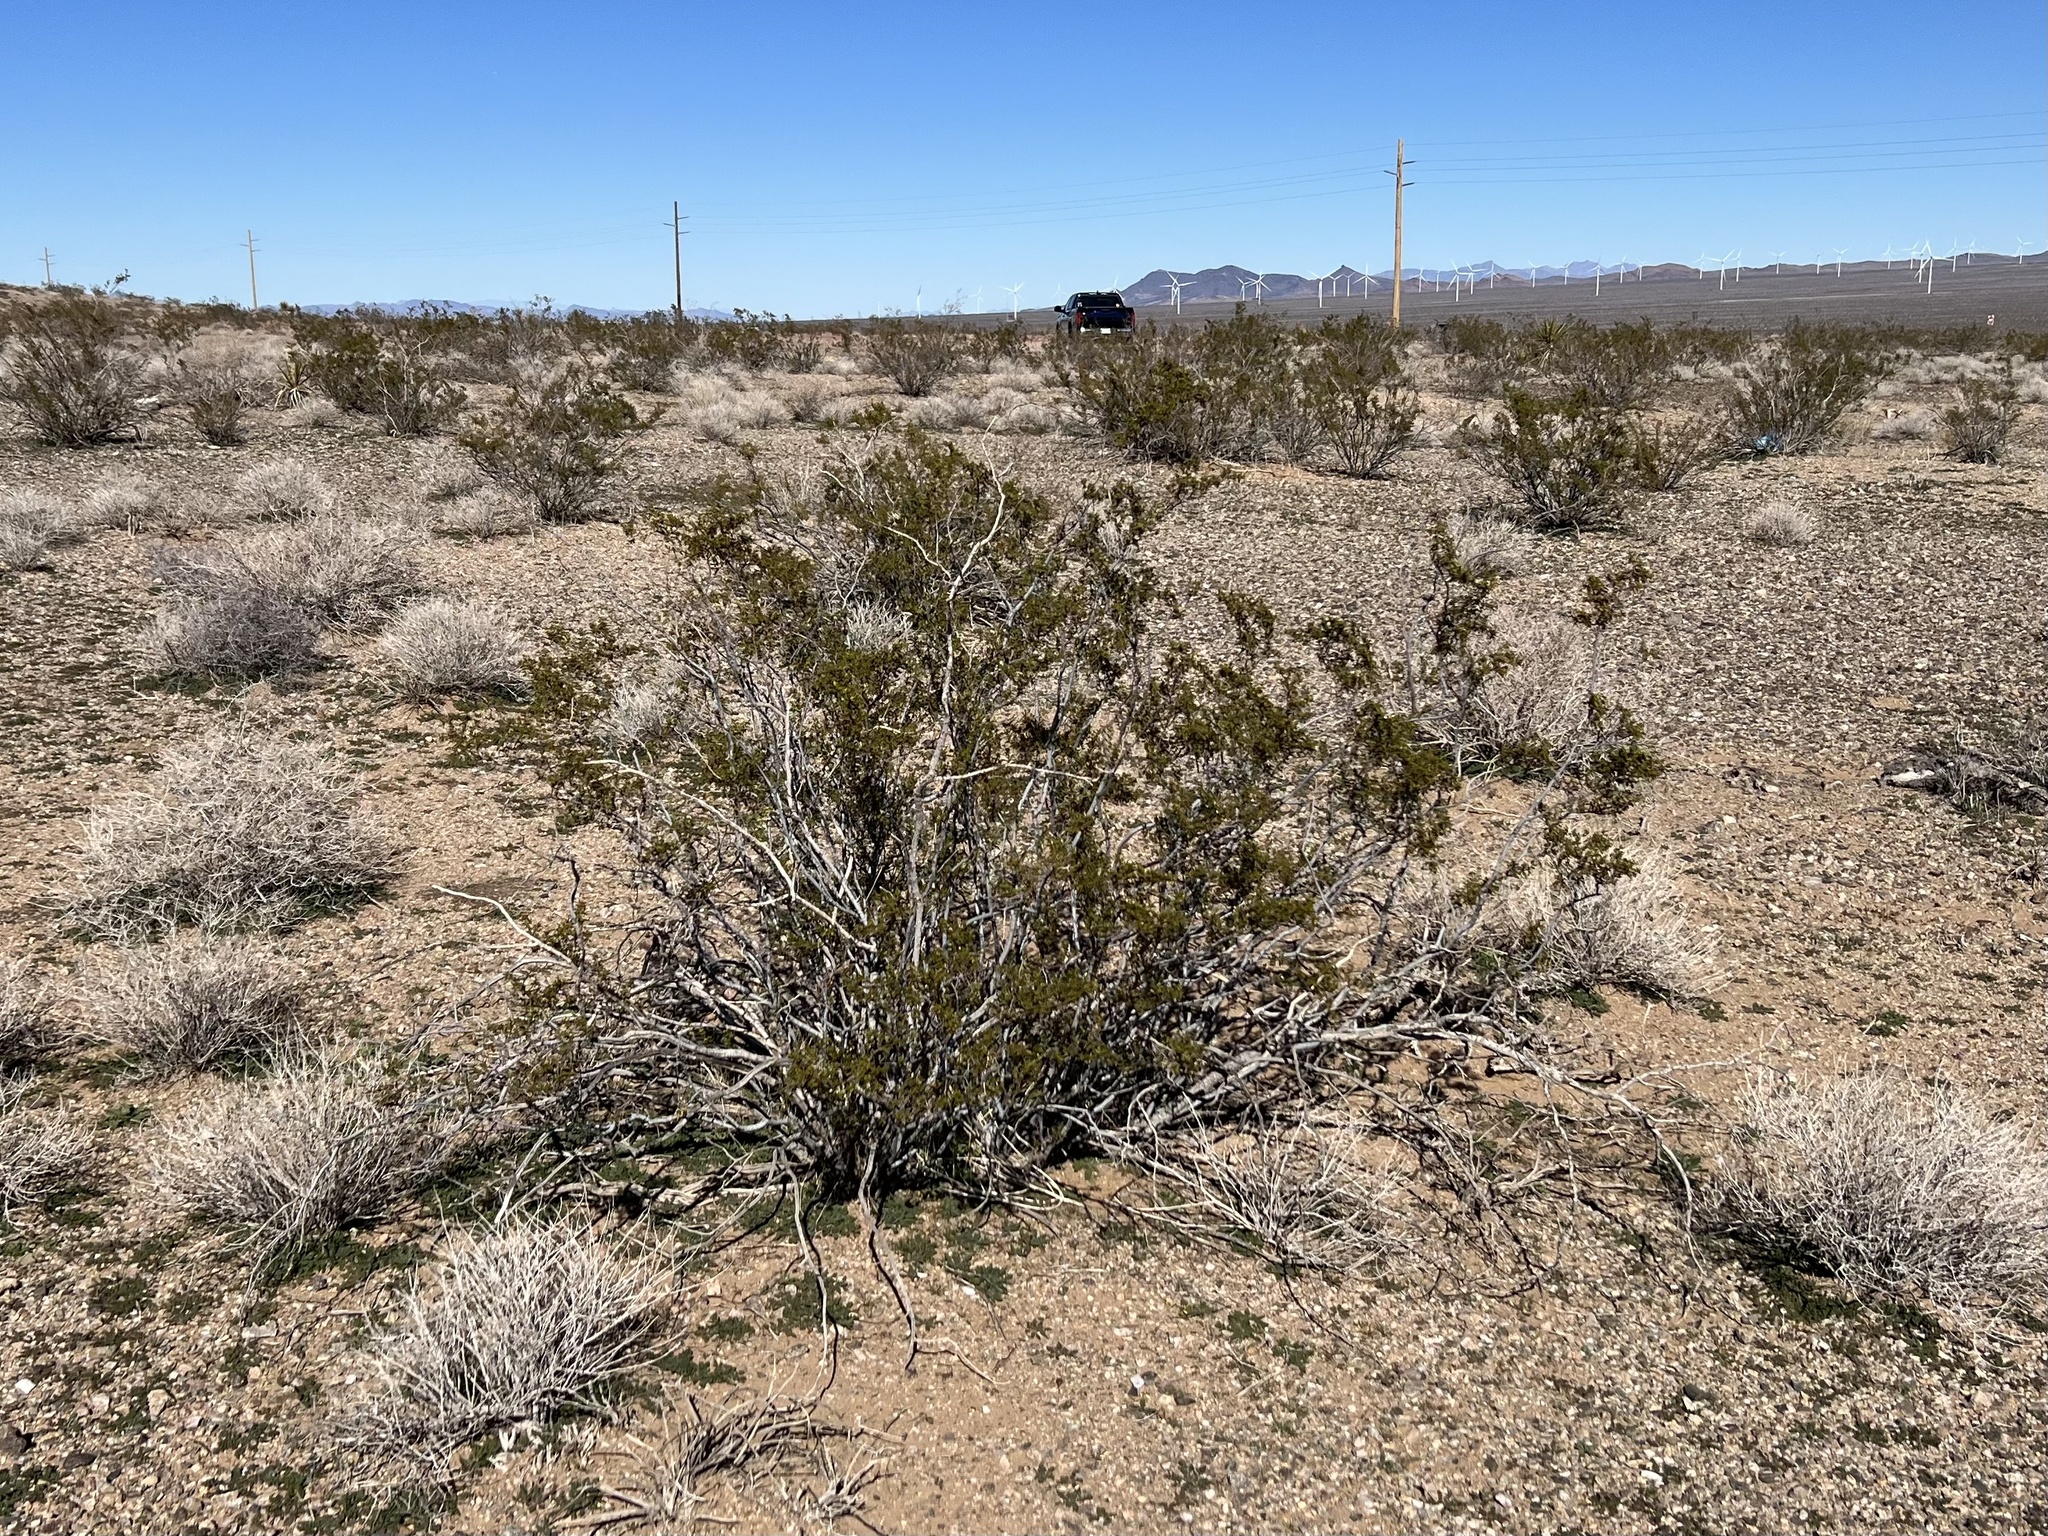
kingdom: Plantae
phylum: Tracheophyta
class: Magnoliopsida
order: Zygophyllales
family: Zygophyllaceae
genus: Larrea
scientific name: Larrea tridentata
